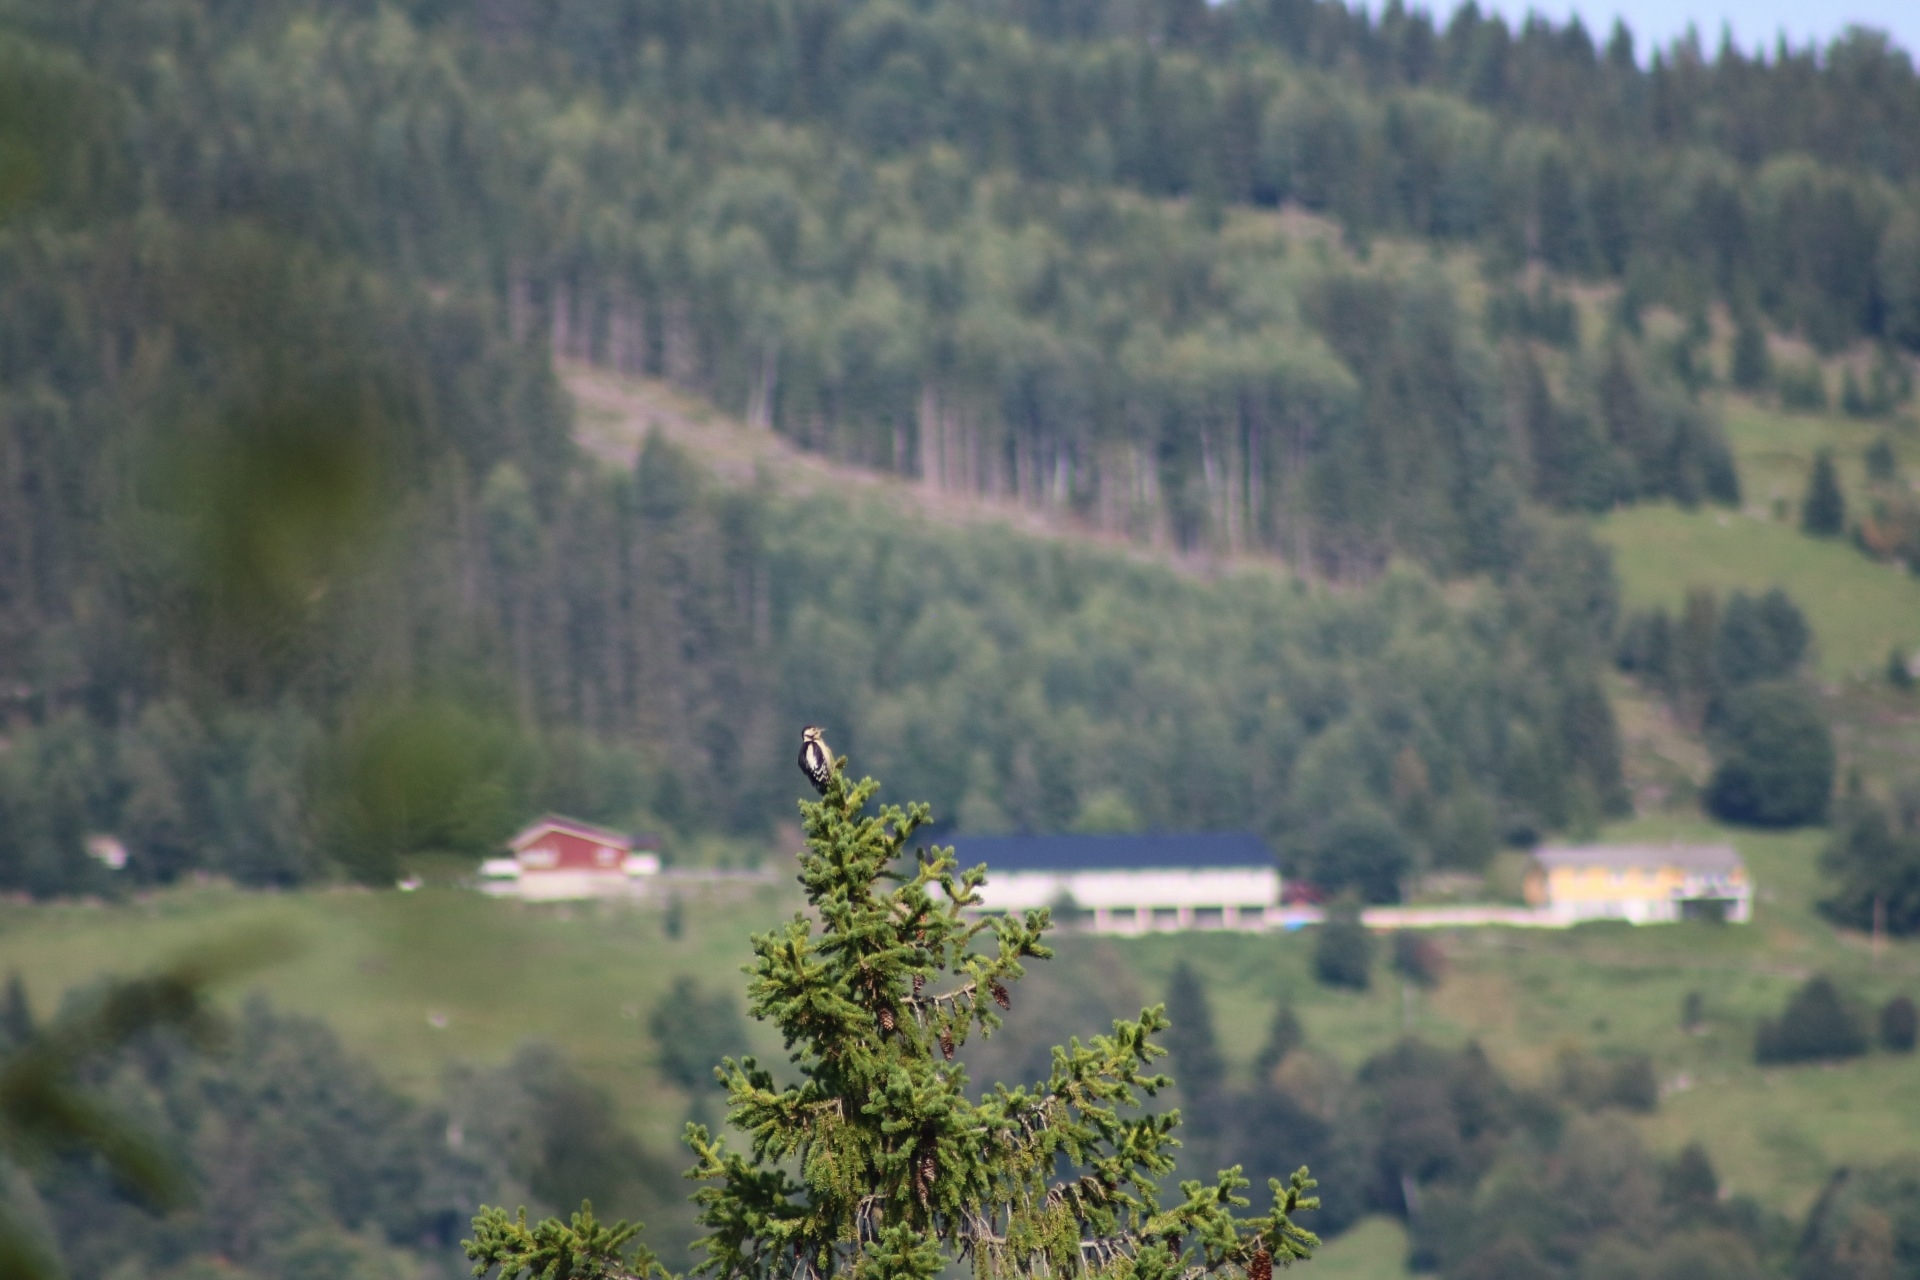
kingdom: Animalia
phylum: Chordata
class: Aves
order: Piciformes
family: Picidae
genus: Dendrocopos
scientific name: Dendrocopos major
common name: Great spotted woodpecker
